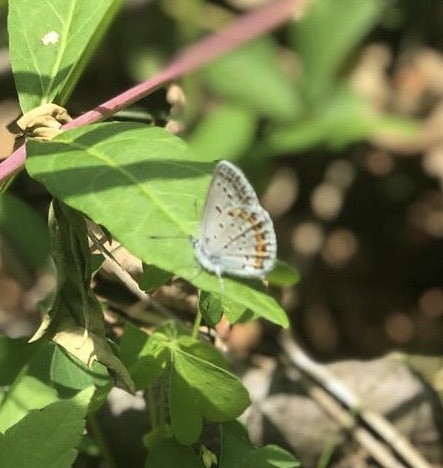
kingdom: Animalia
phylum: Arthropoda
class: Insecta
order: Lepidoptera
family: Lycaenidae
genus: Plebejus
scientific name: Plebejus samuelis
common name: Karner blue
